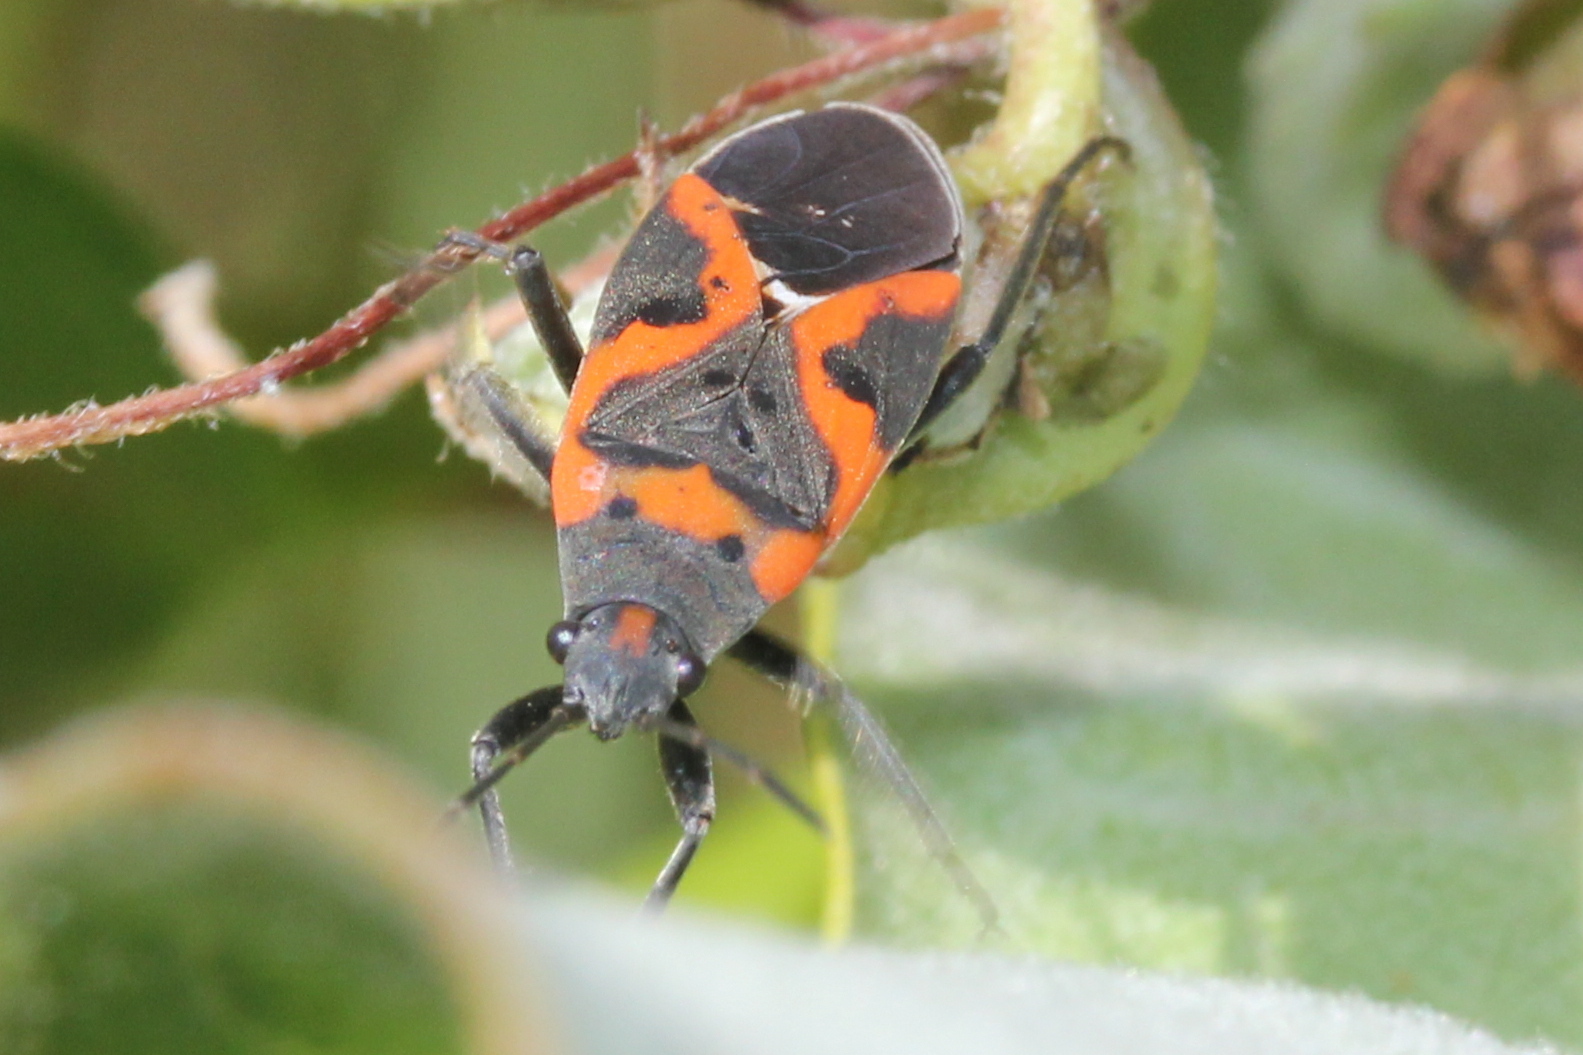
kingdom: Animalia
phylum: Arthropoda
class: Insecta
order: Hemiptera
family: Lygaeidae
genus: Lygaeus
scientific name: Lygaeus kalmii
